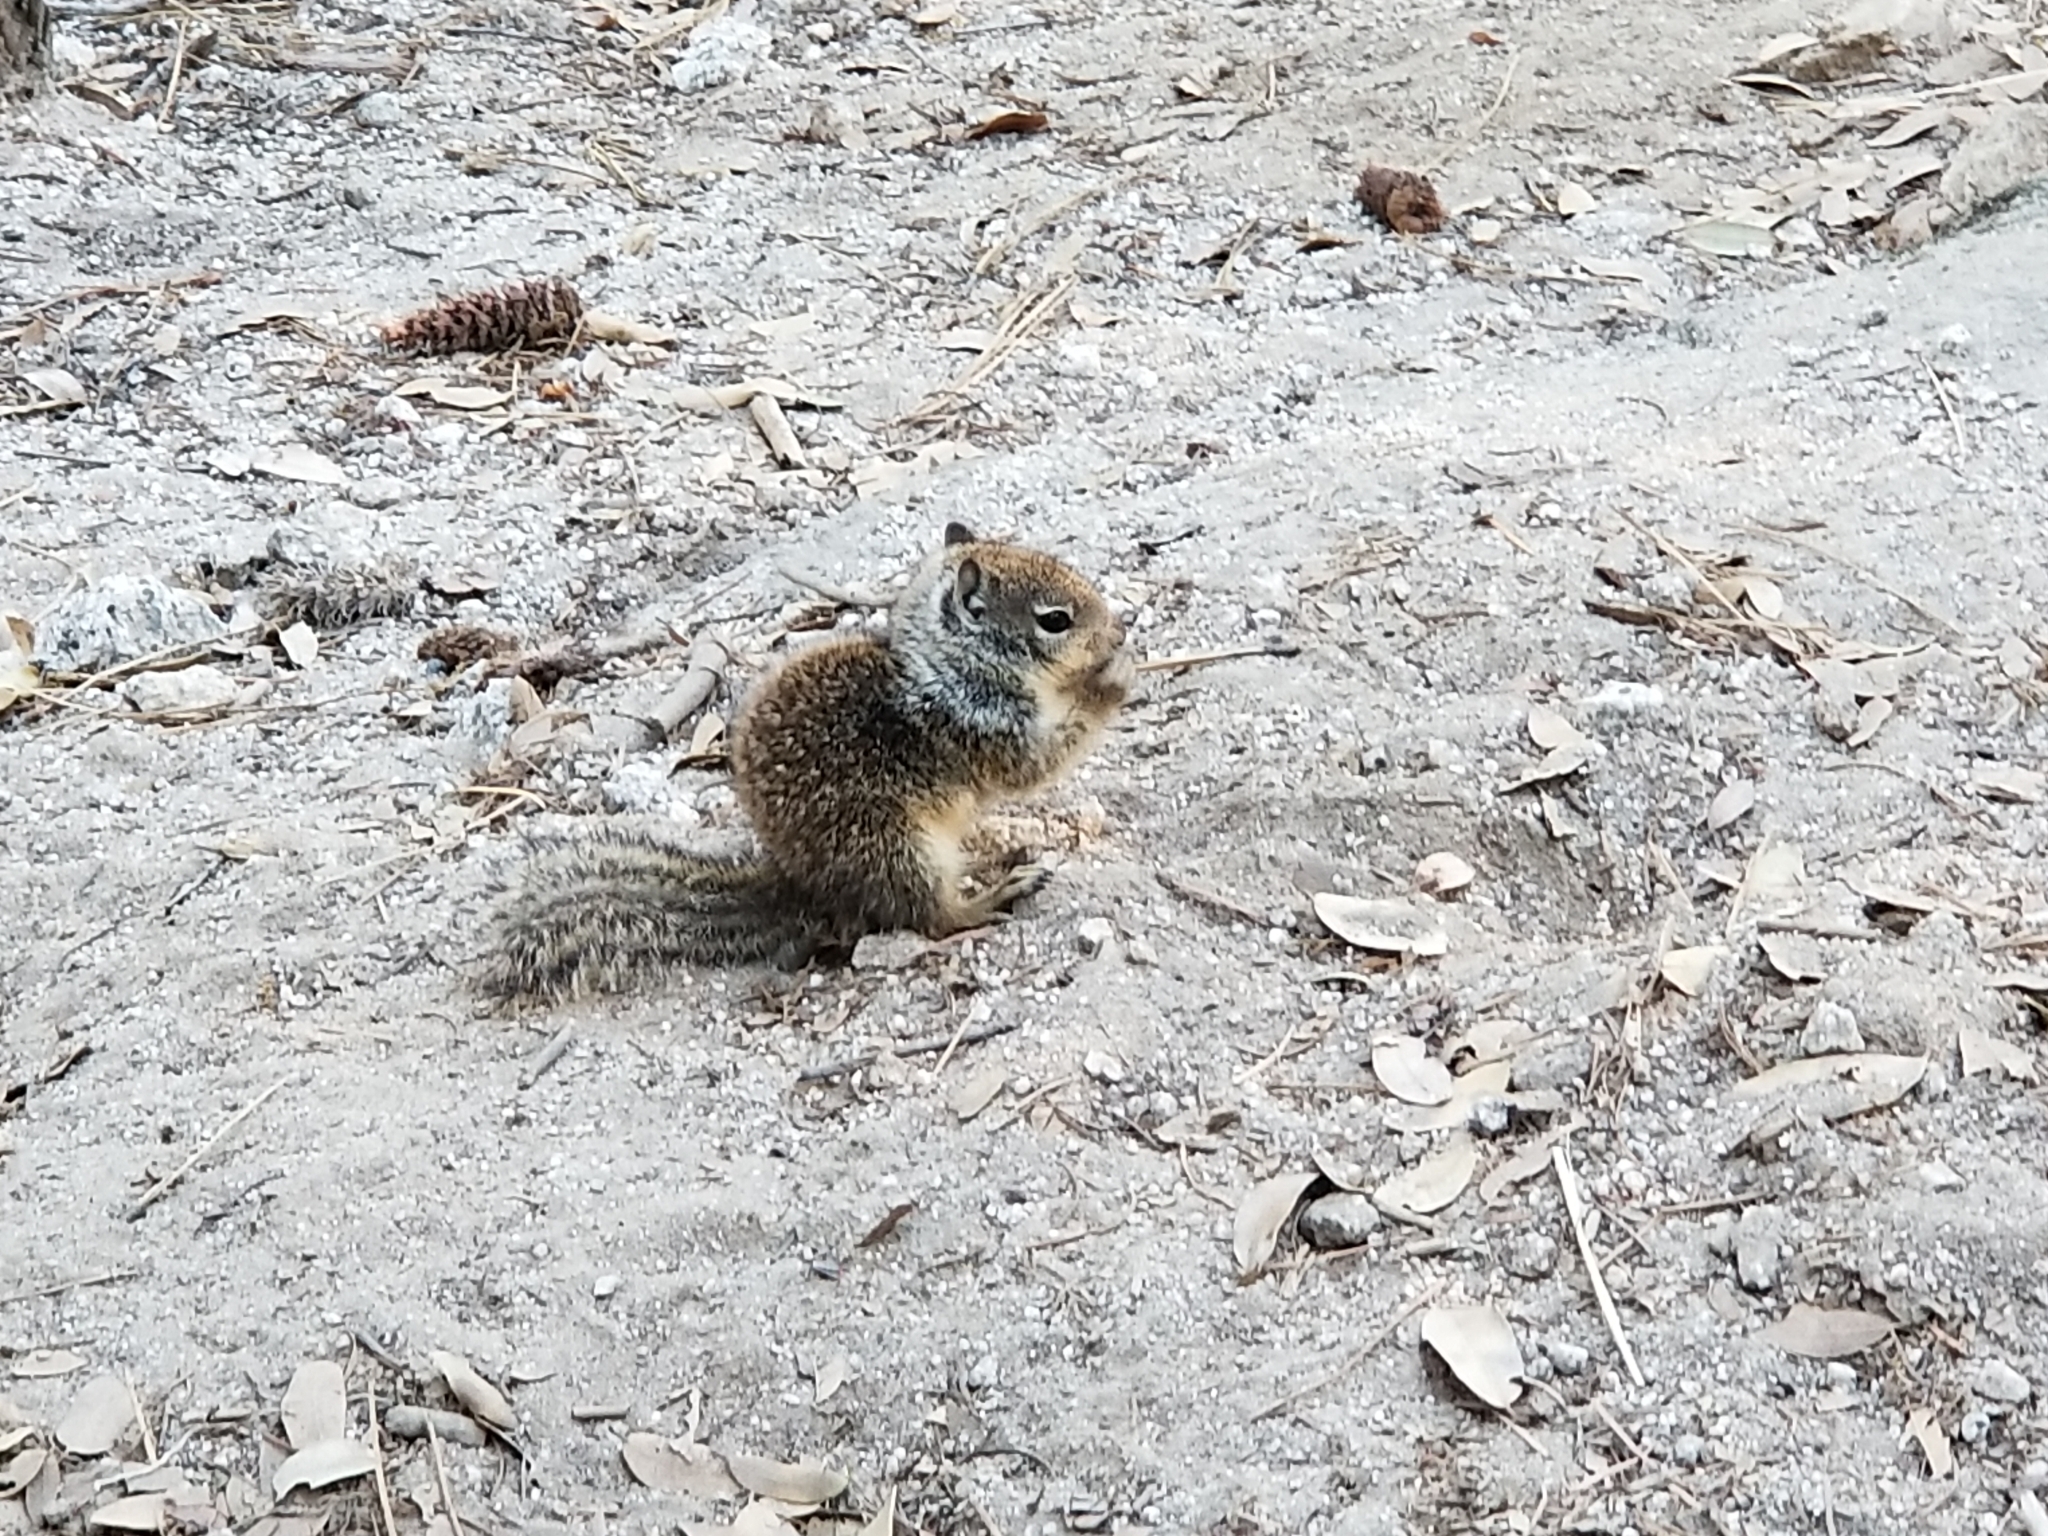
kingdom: Animalia
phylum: Chordata
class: Mammalia
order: Rodentia
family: Sciuridae
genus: Otospermophilus
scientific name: Otospermophilus beecheyi
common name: California ground squirrel
